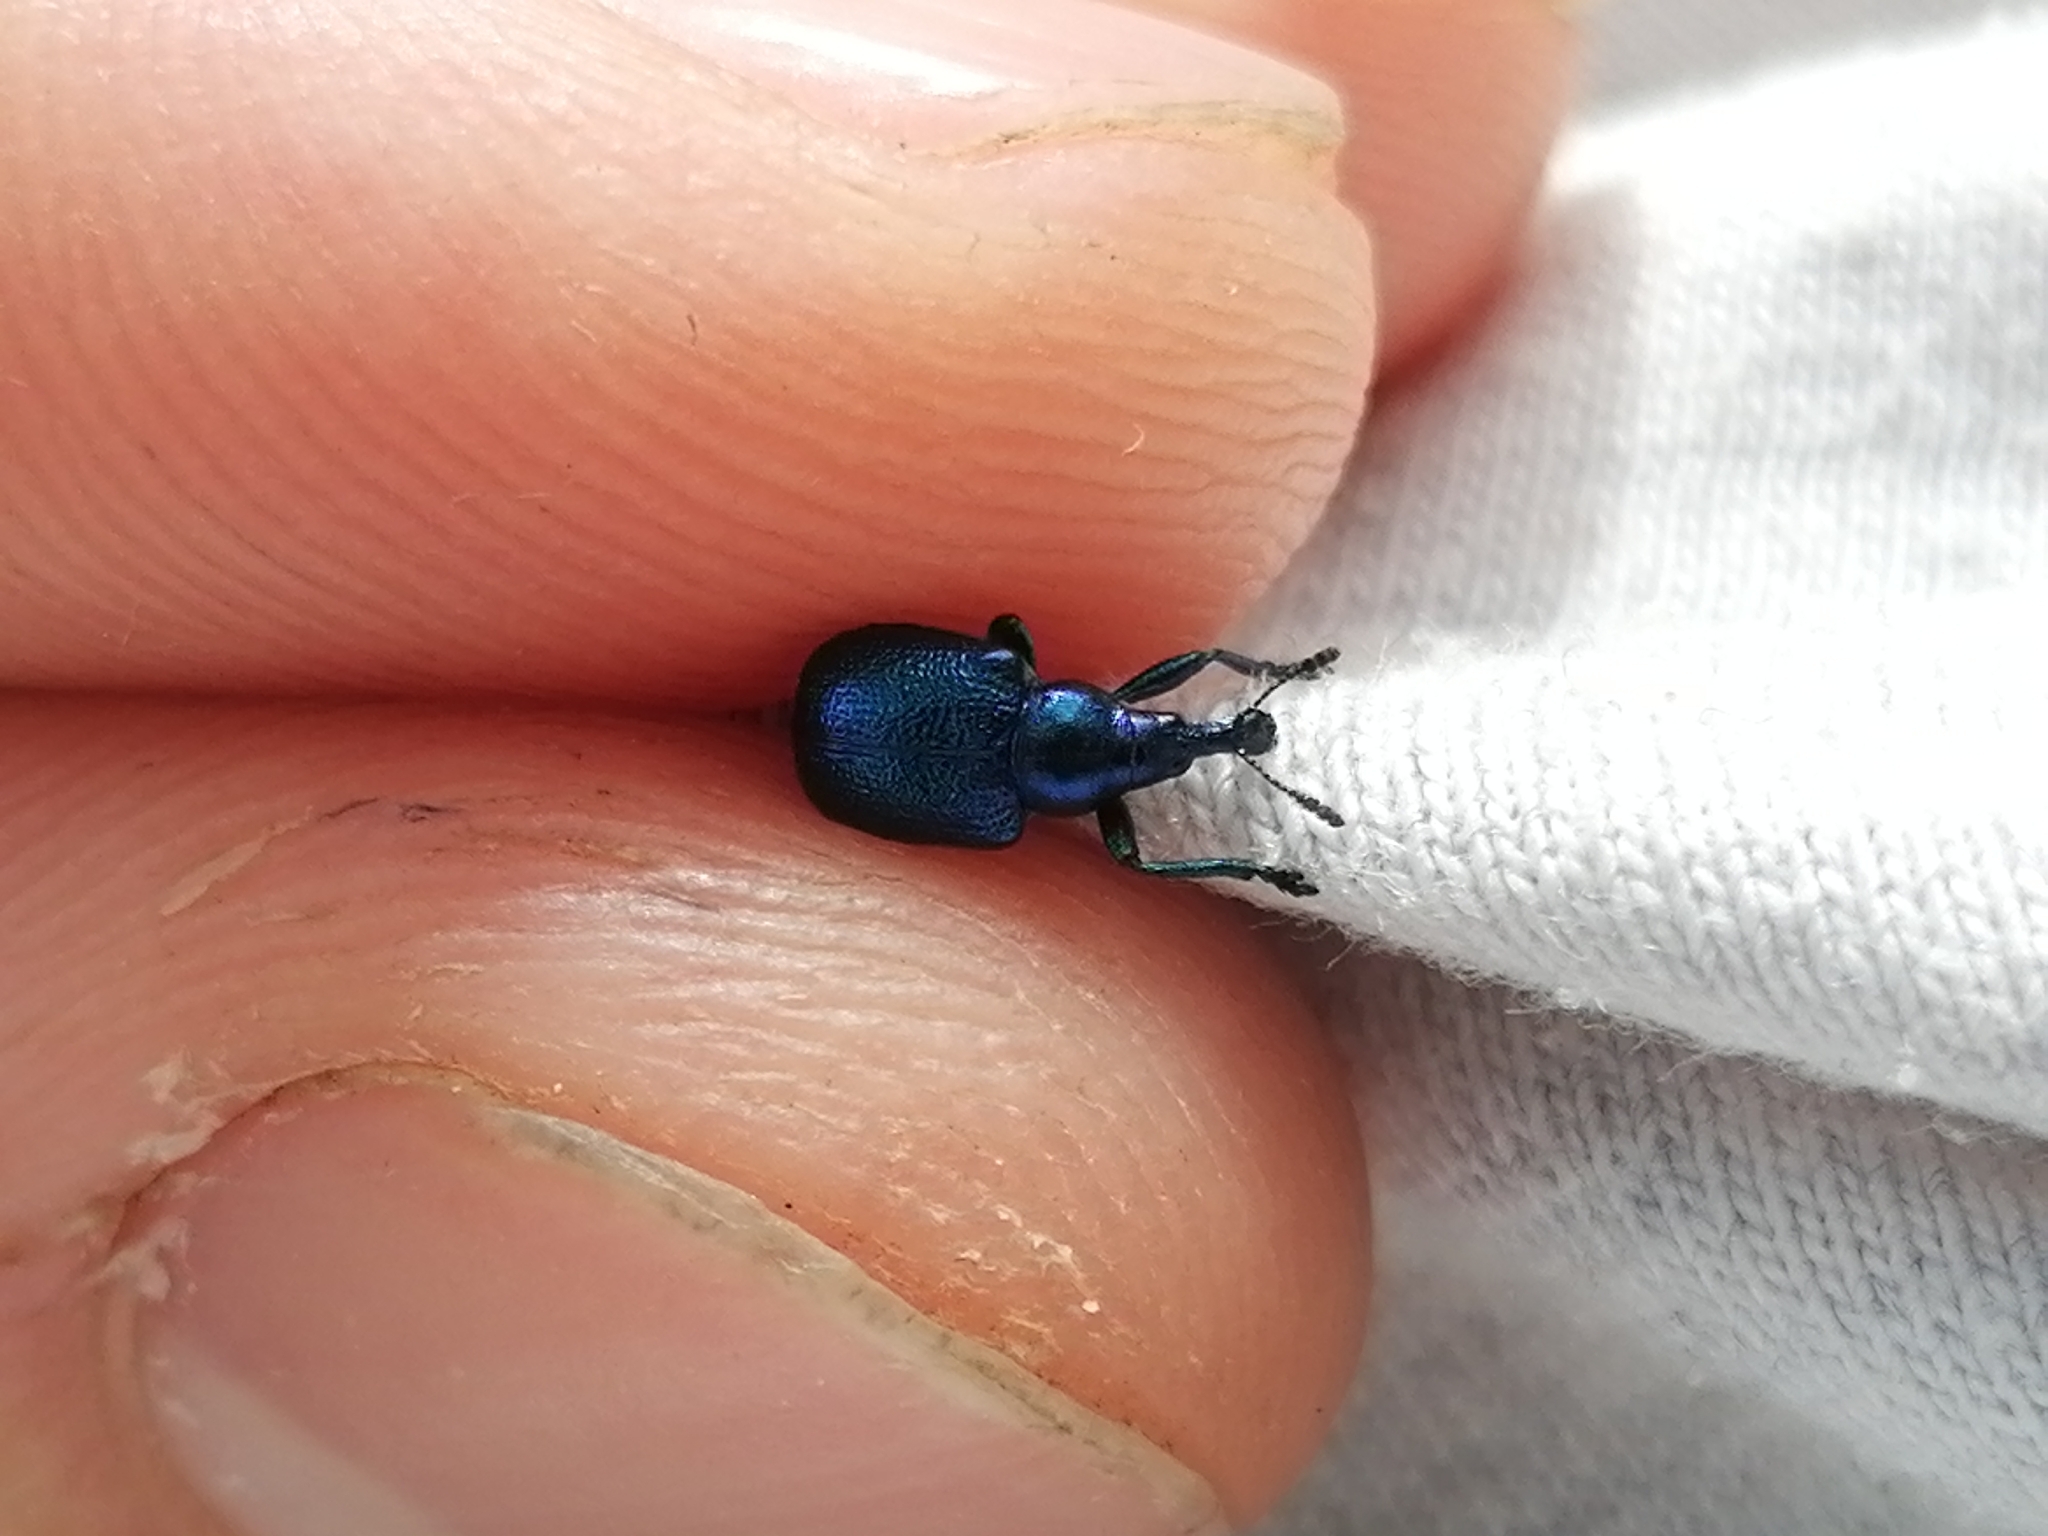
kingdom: Animalia
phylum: Arthropoda
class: Insecta
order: Coleoptera
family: Attelabidae
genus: Byctiscus
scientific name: Byctiscus betulae
